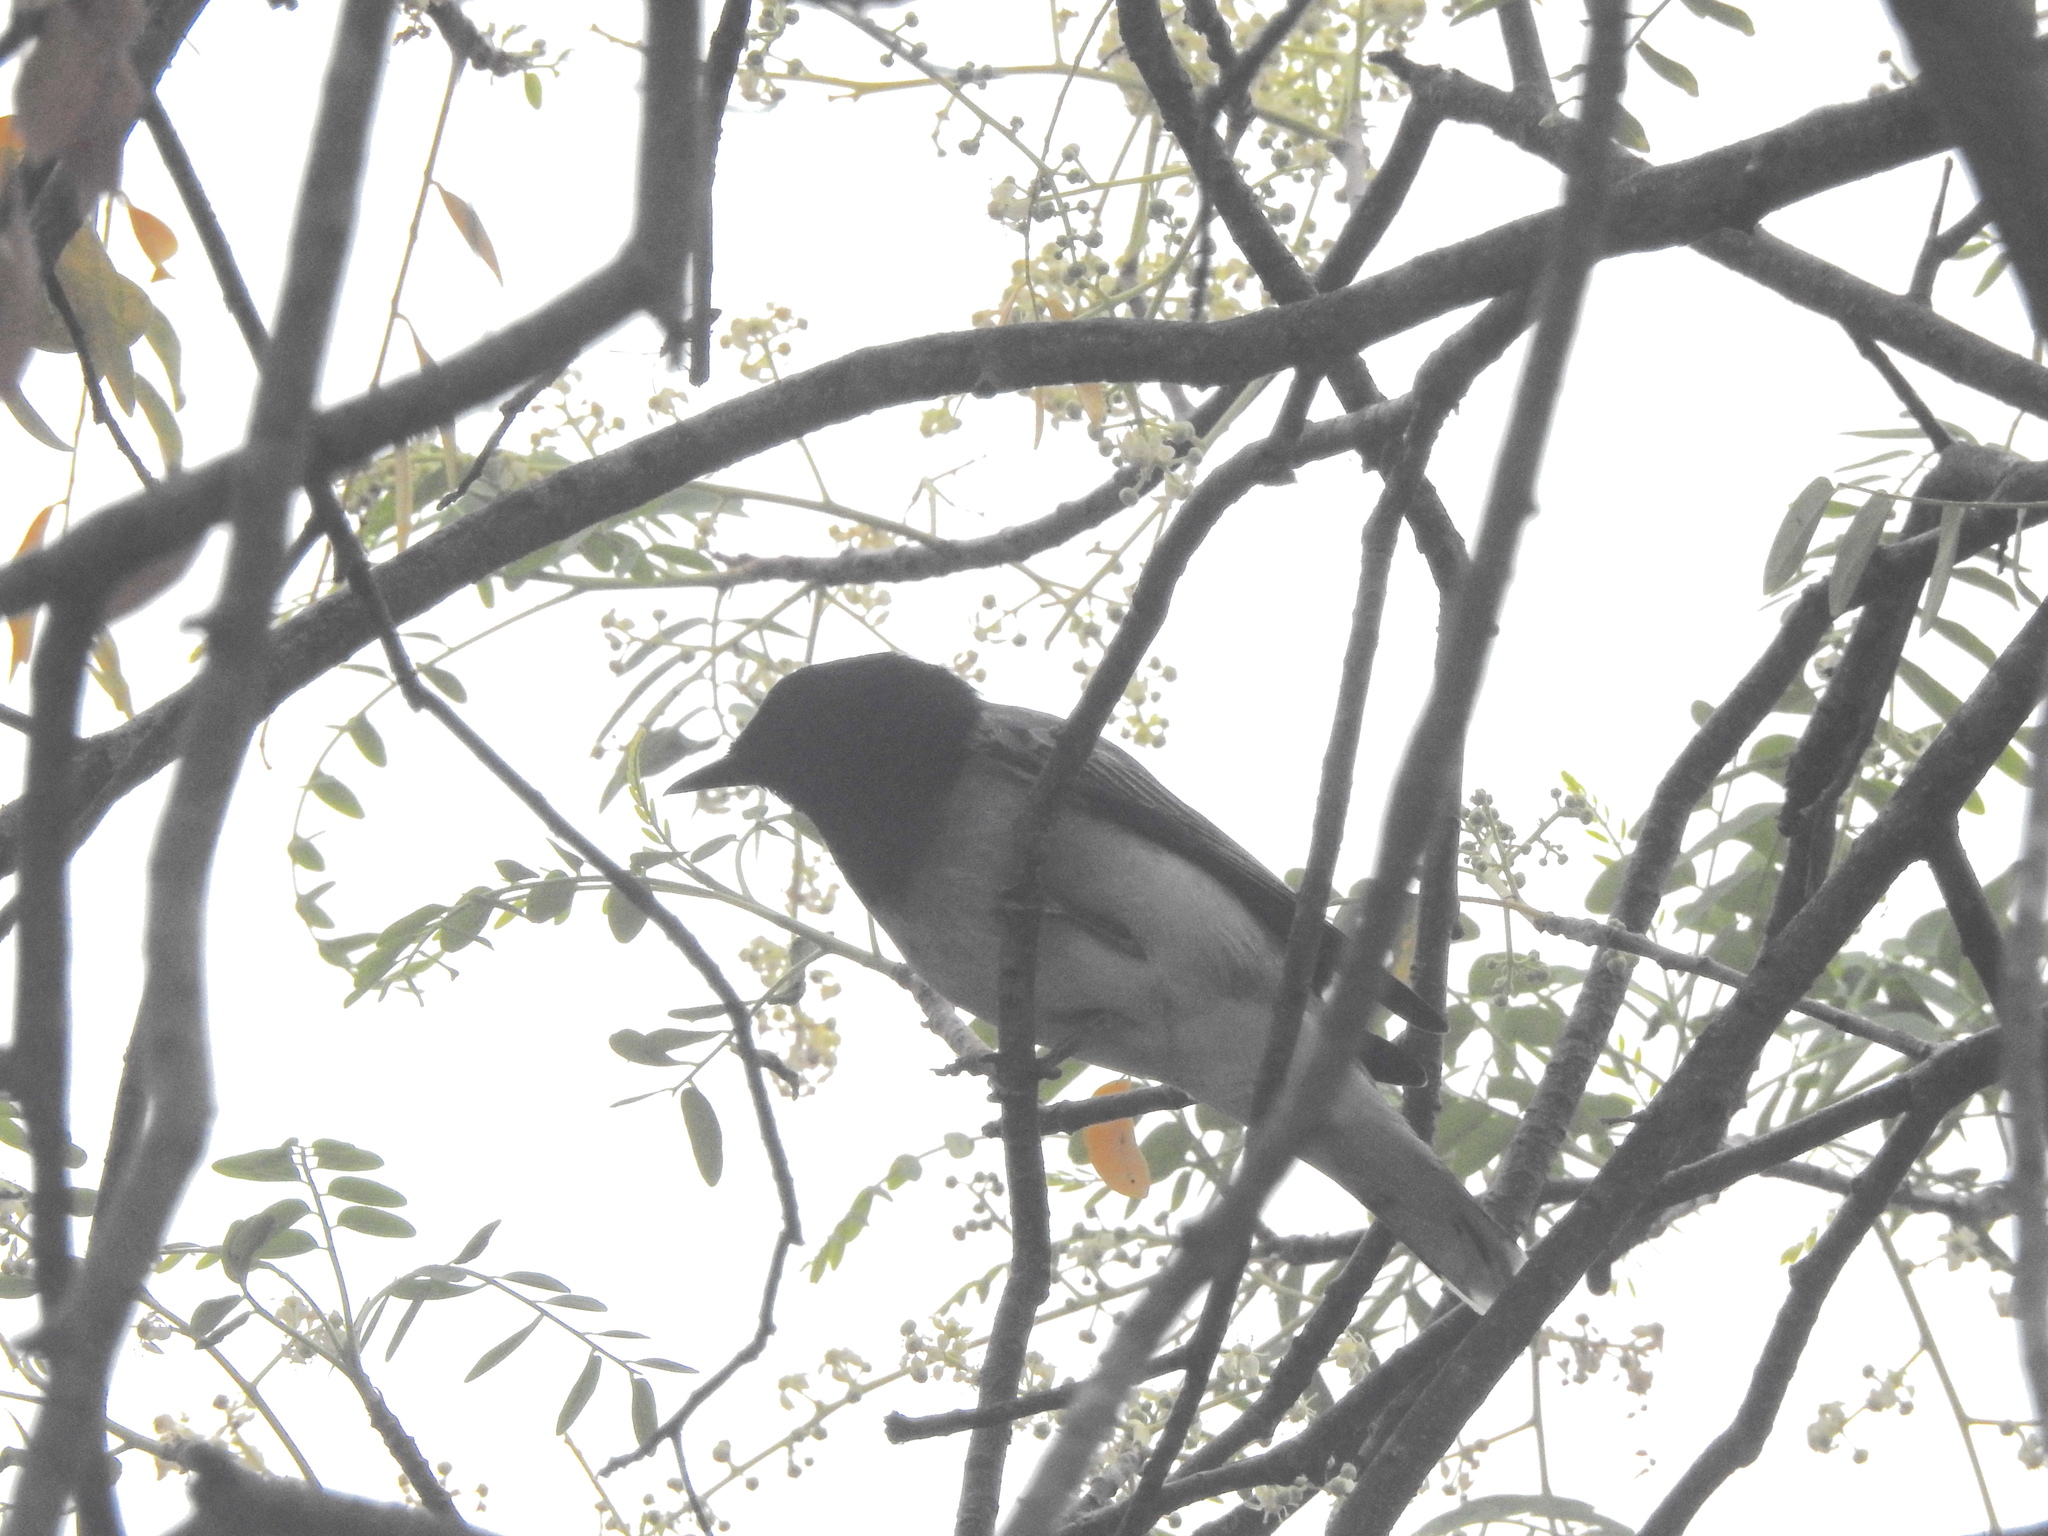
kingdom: Animalia
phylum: Chordata
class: Aves
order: Passeriformes
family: Campephagidae
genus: Coracina
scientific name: Coracina melanoptera
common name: Black-headed cuckooshrike
